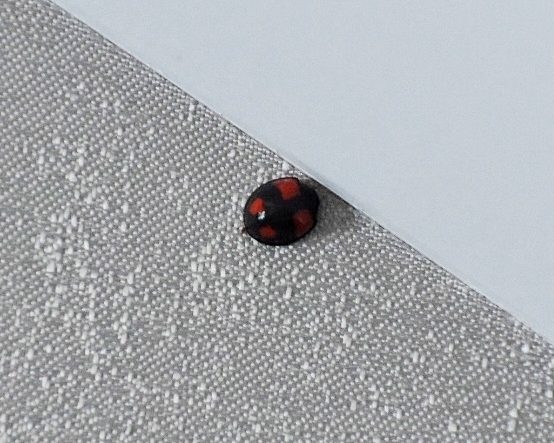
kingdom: Animalia
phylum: Arthropoda
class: Insecta
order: Coleoptera
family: Coccinellidae
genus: Cheilomenes
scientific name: Cheilomenes sexmaculata
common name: Ladybird beetle
